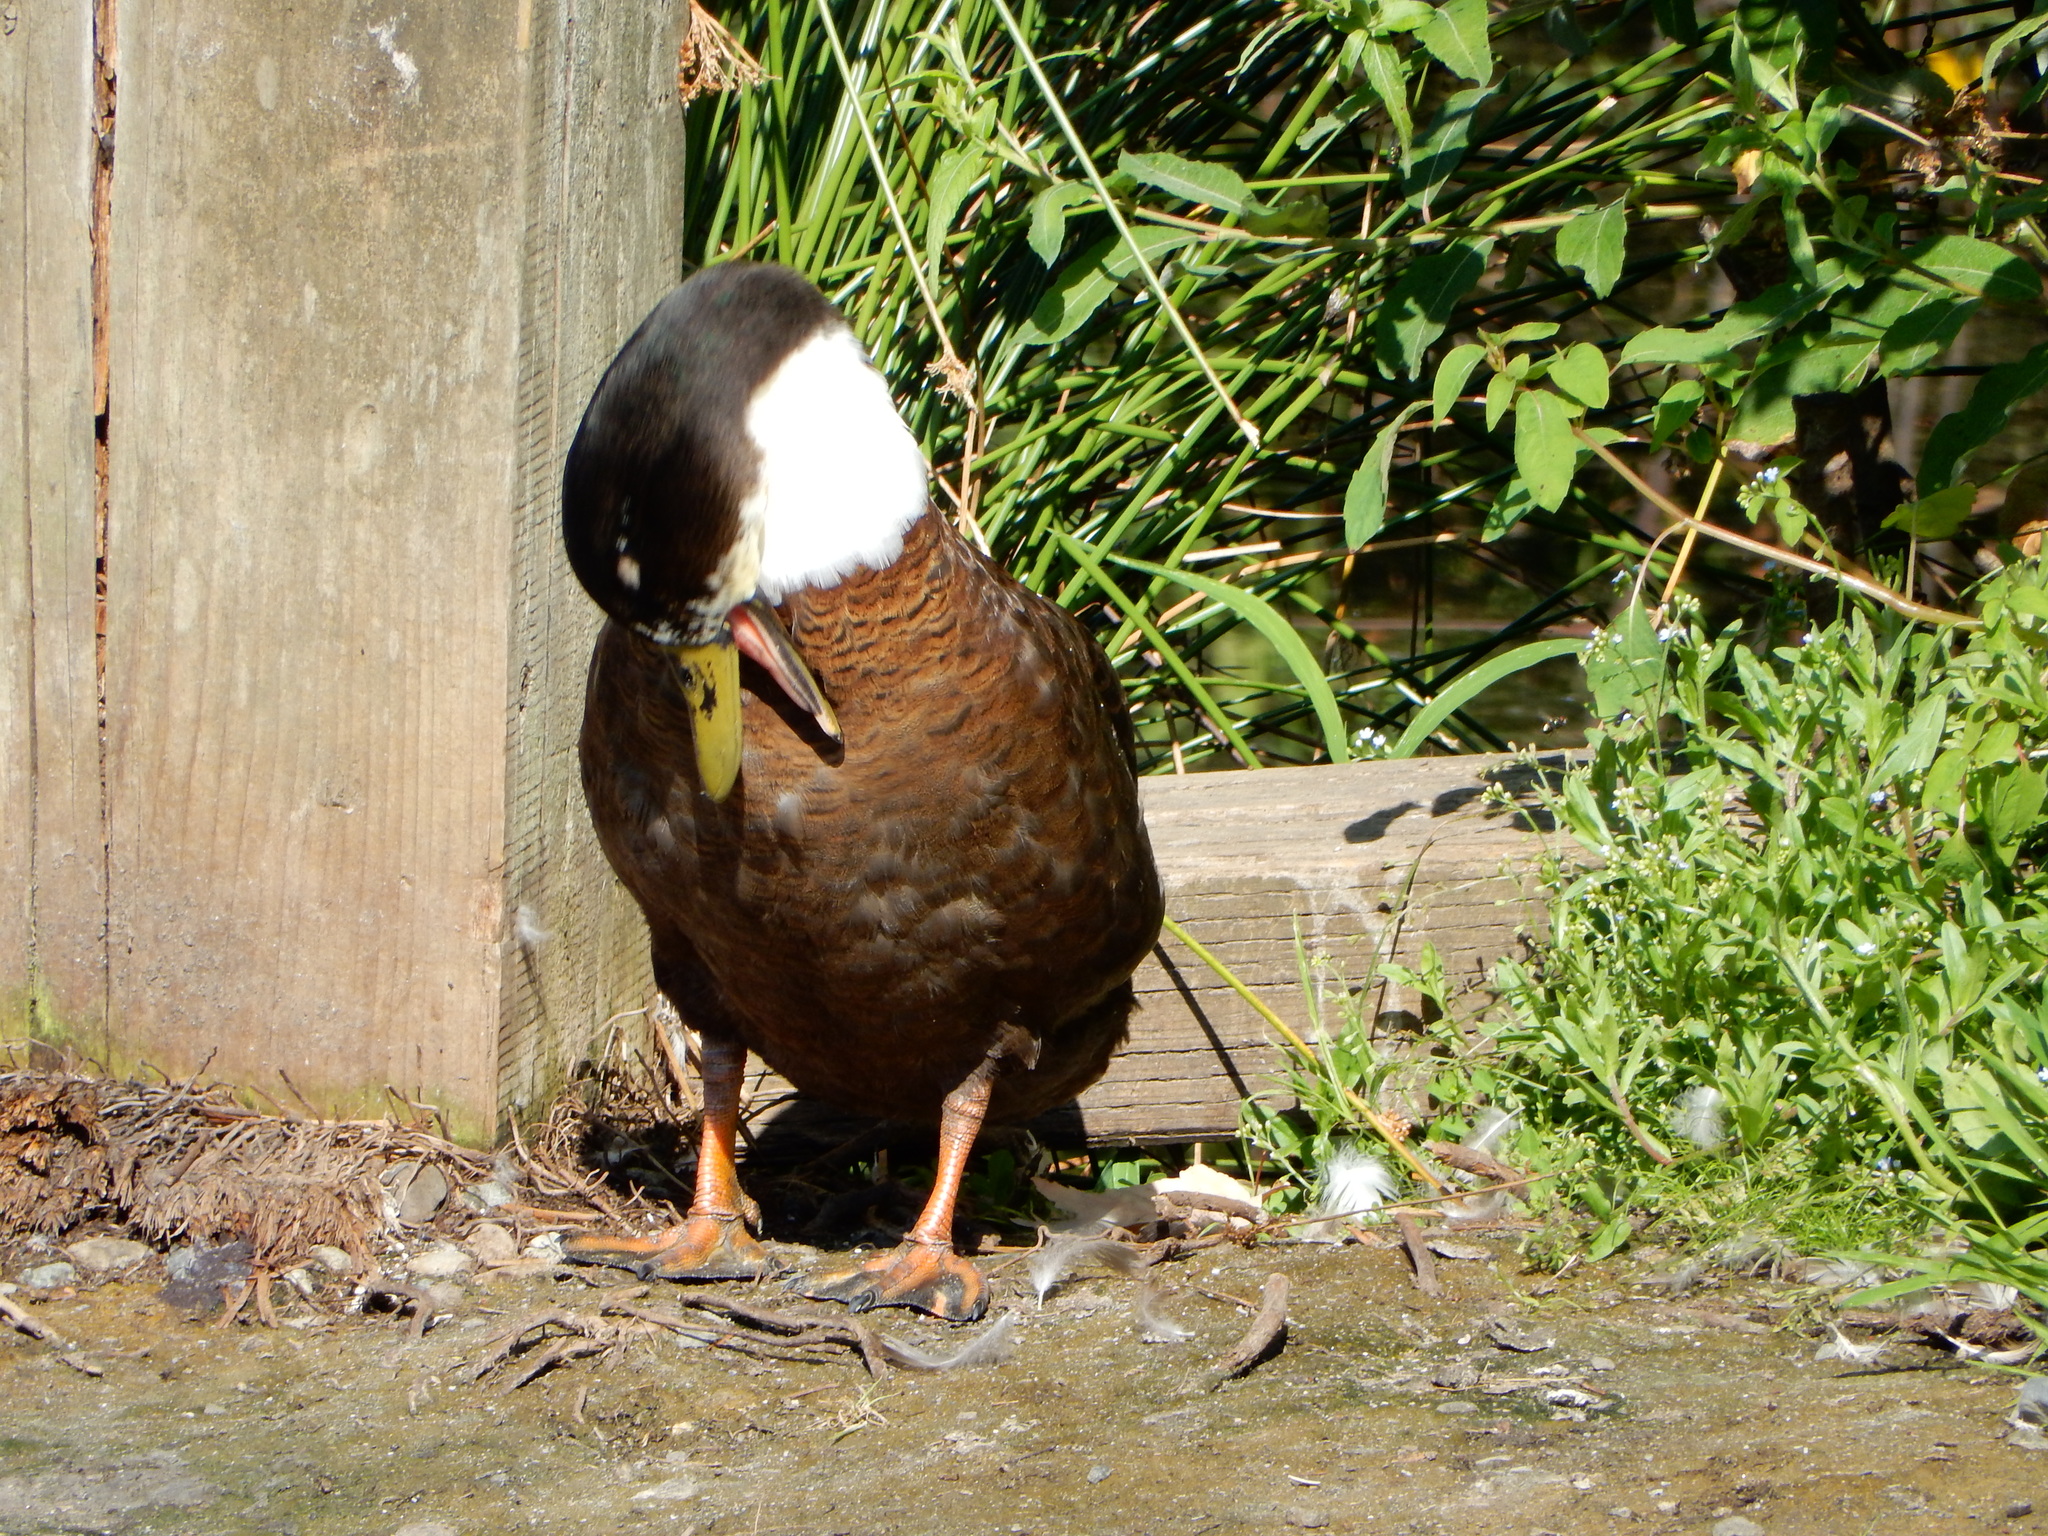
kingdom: Animalia
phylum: Chordata
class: Aves
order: Anseriformes
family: Anatidae
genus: Anas
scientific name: Anas platyrhynchos
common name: Mallard
